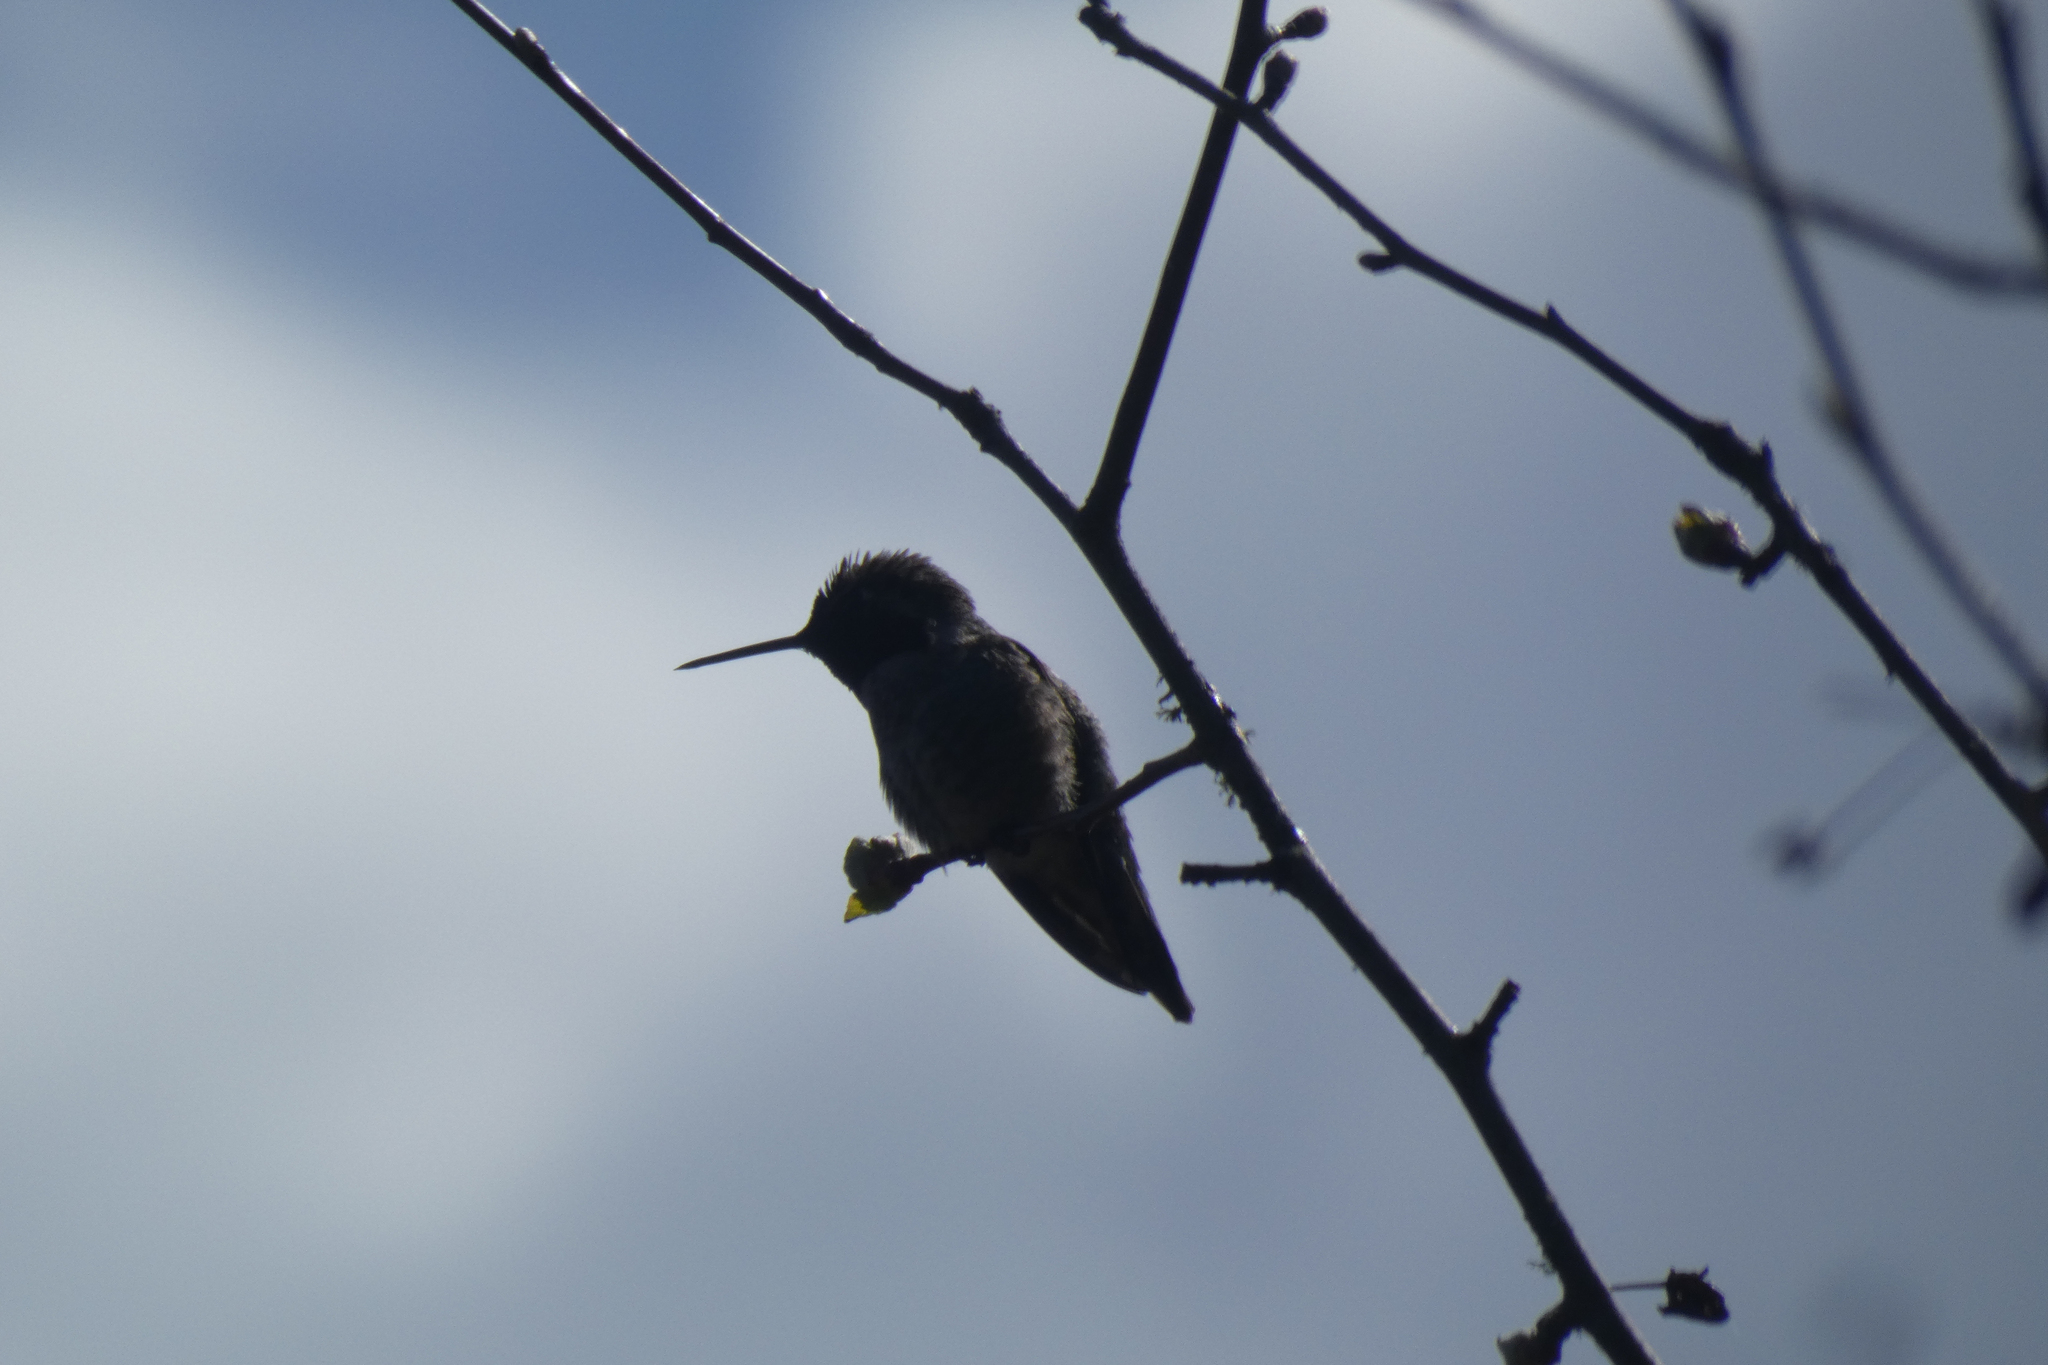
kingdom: Animalia
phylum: Chordata
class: Aves
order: Apodiformes
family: Trochilidae
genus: Calypte
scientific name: Calypte anna
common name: Anna's hummingbird
